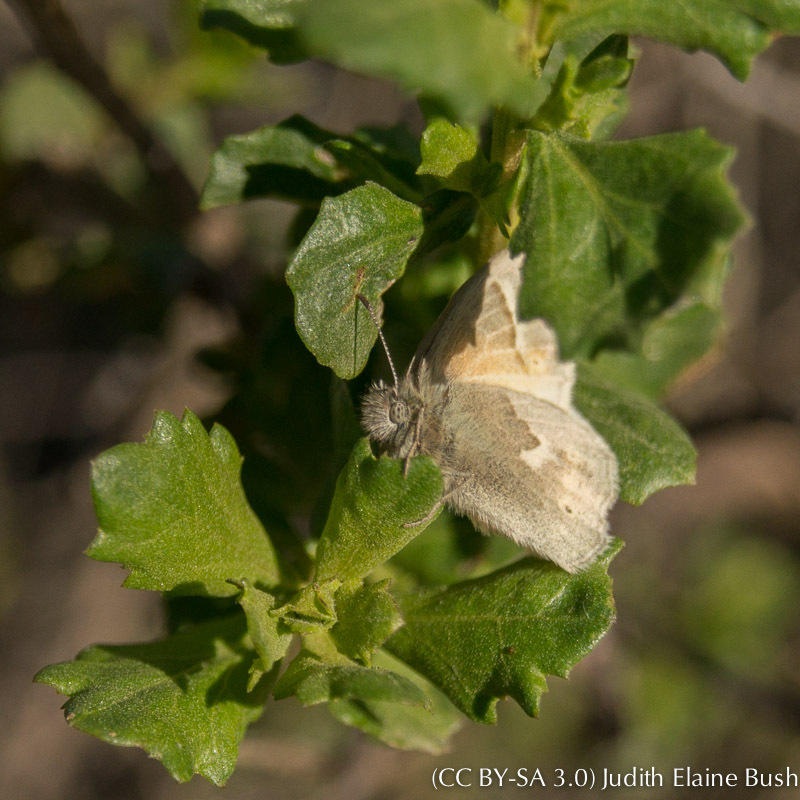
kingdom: Animalia
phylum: Arthropoda
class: Insecta
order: Lepidoptera
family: Nymphalidae
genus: Coenonympha
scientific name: Coenonympha california
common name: Common ringlet
